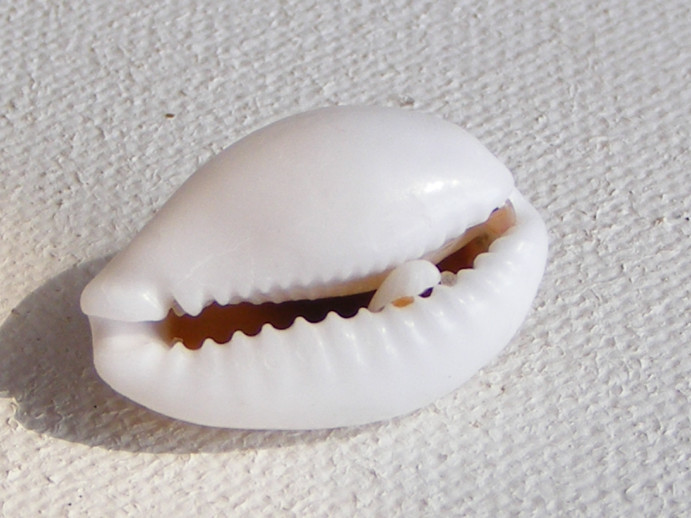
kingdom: Animalia
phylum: Mollusca
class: Gastropoda
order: Littorinimorpha
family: Cypraeidae
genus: Cribrarula
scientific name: Cribrarula comma
